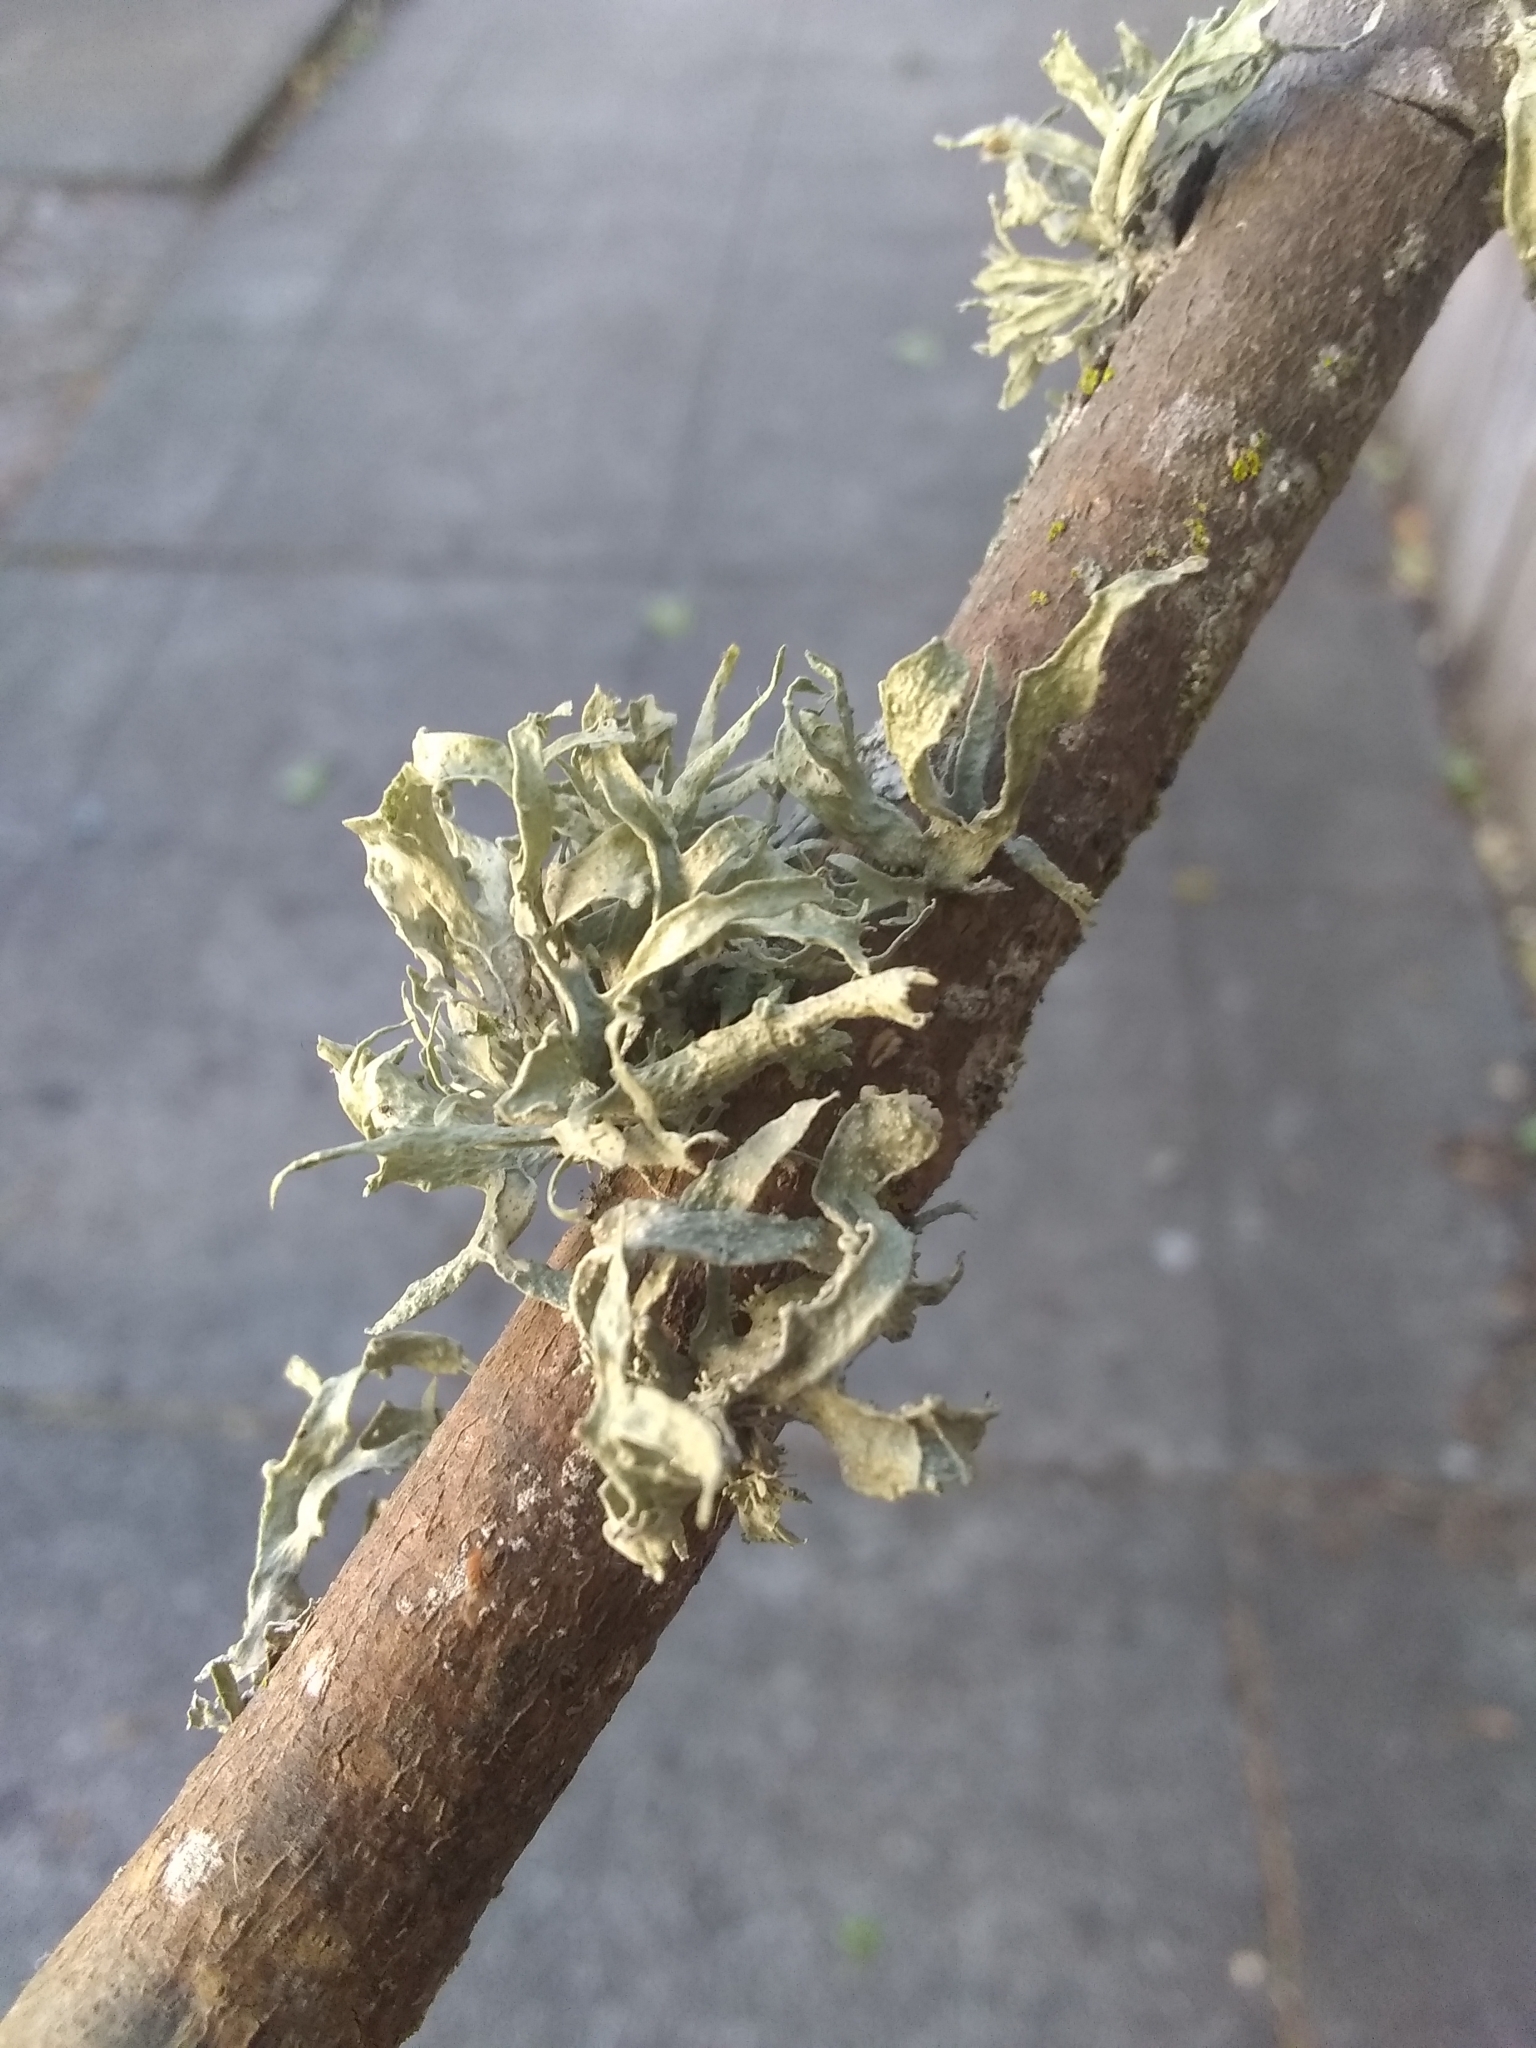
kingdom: Fungi
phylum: Ascomycota
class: Lecanoromycetes
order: Lecanorales
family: Ramalinaceae
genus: Ramalina
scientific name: Ramalina leptocarpha
